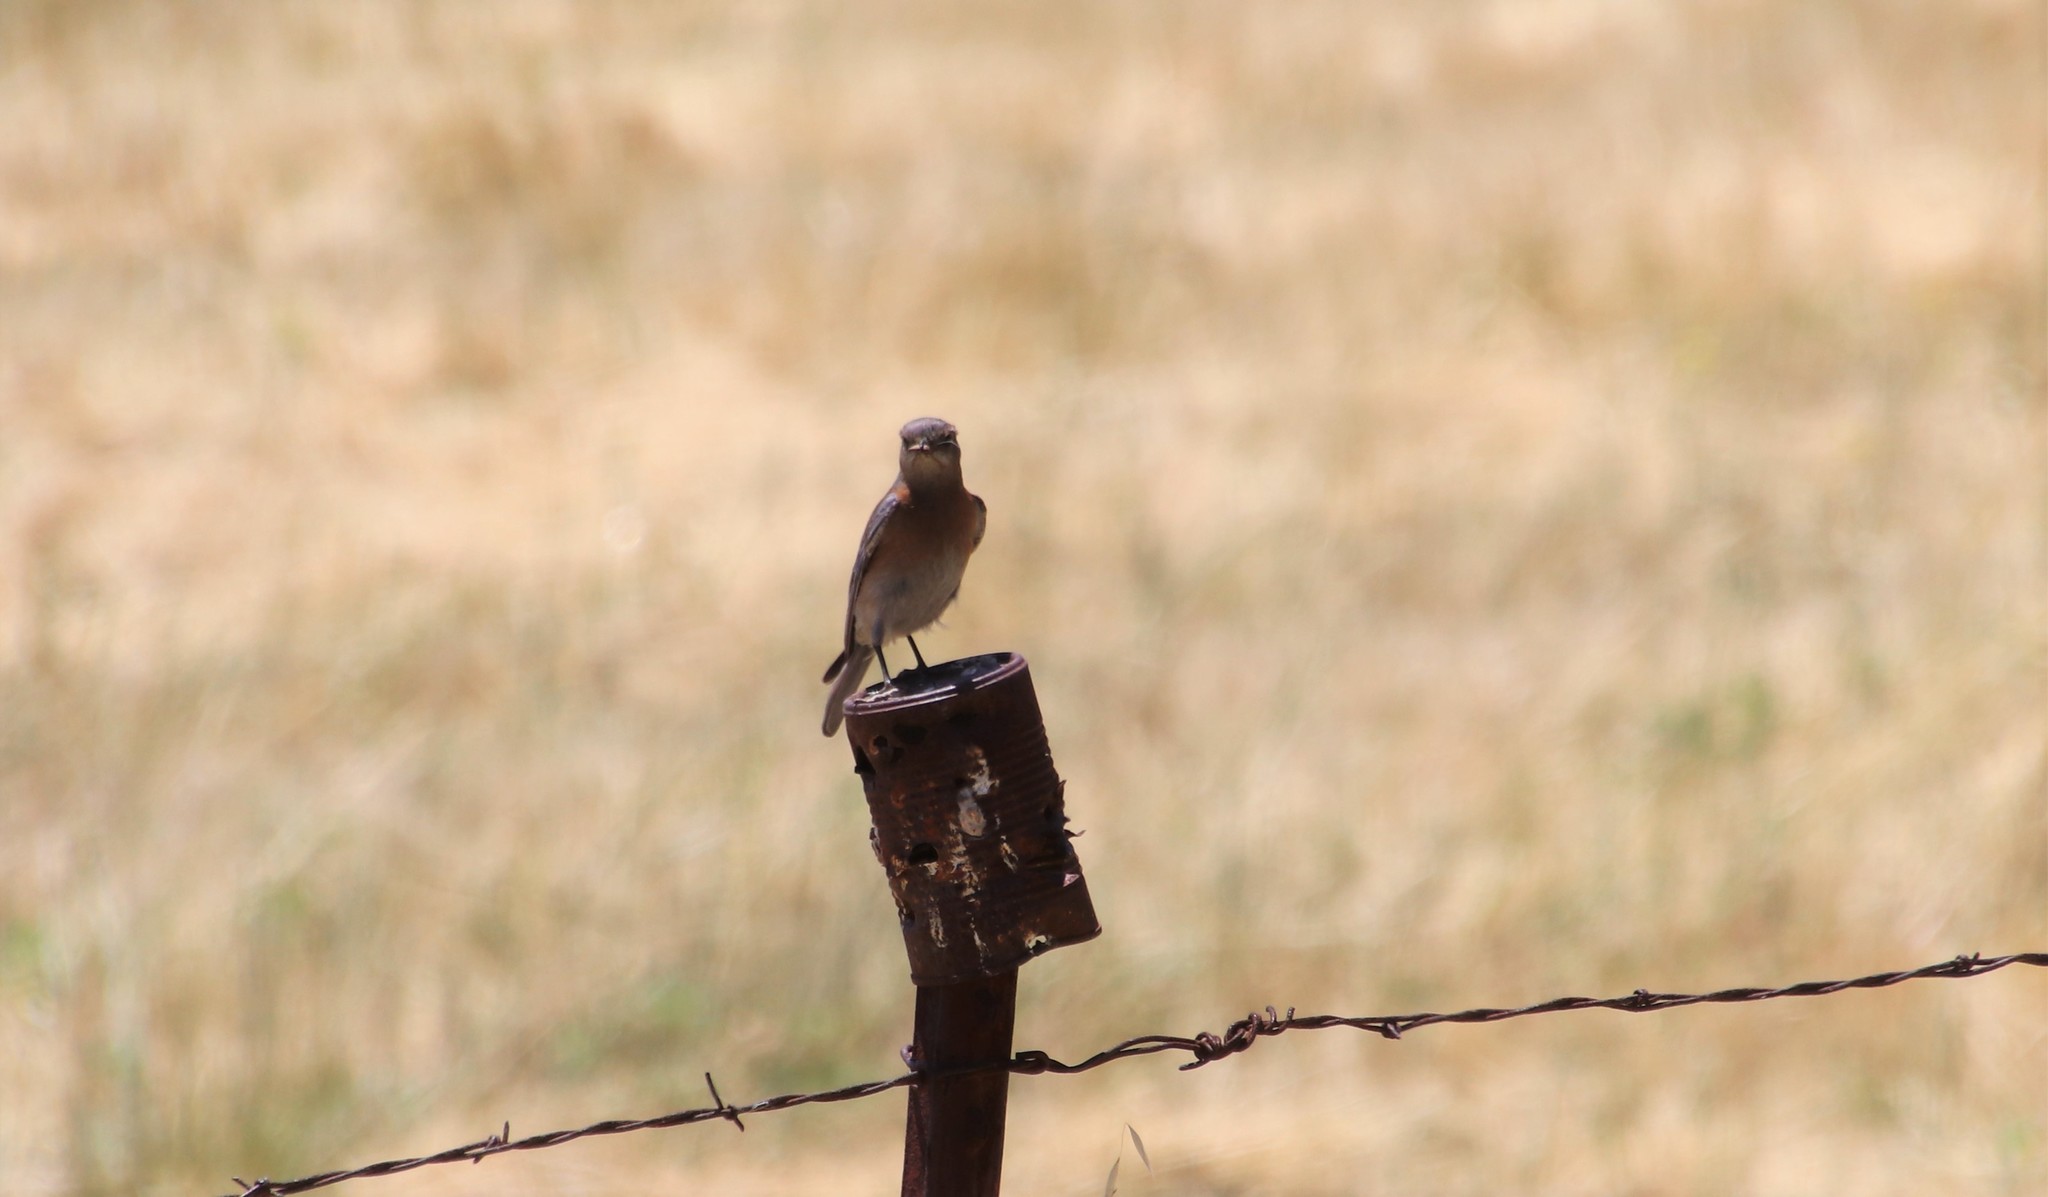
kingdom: Animalia
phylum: Chordata
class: Aves
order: Passeriformes
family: Turdidae
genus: Sialia
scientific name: Sialia mexicana
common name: Western bluebird
